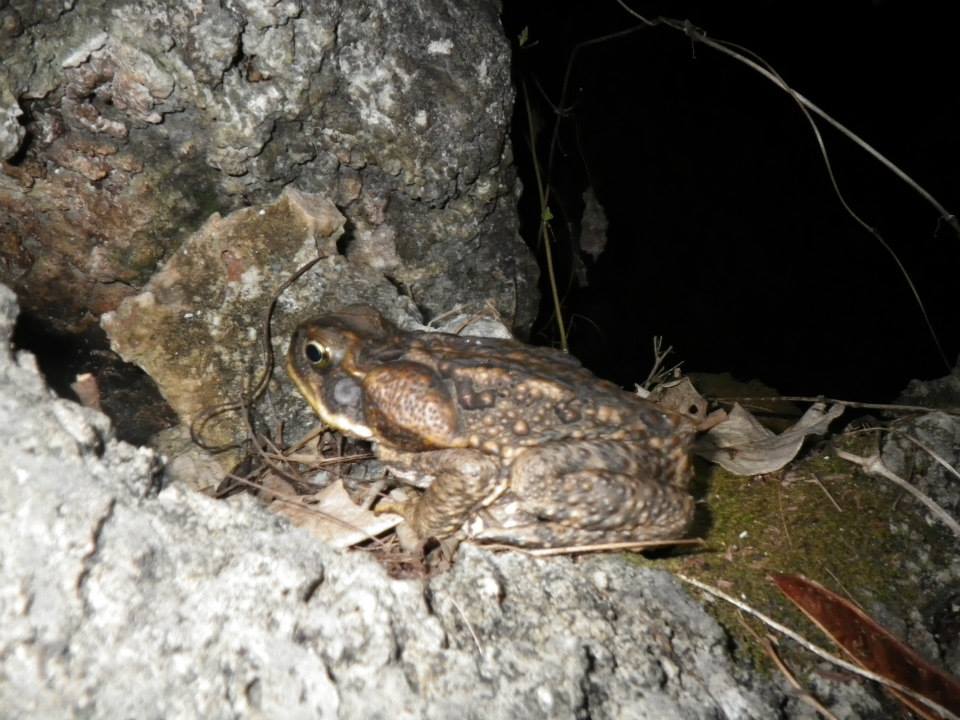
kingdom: Animalia
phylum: Chordata
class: Amphibia
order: Anura
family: Bufonidae
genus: Rhinella
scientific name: Rhinella marina
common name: Cane toad
